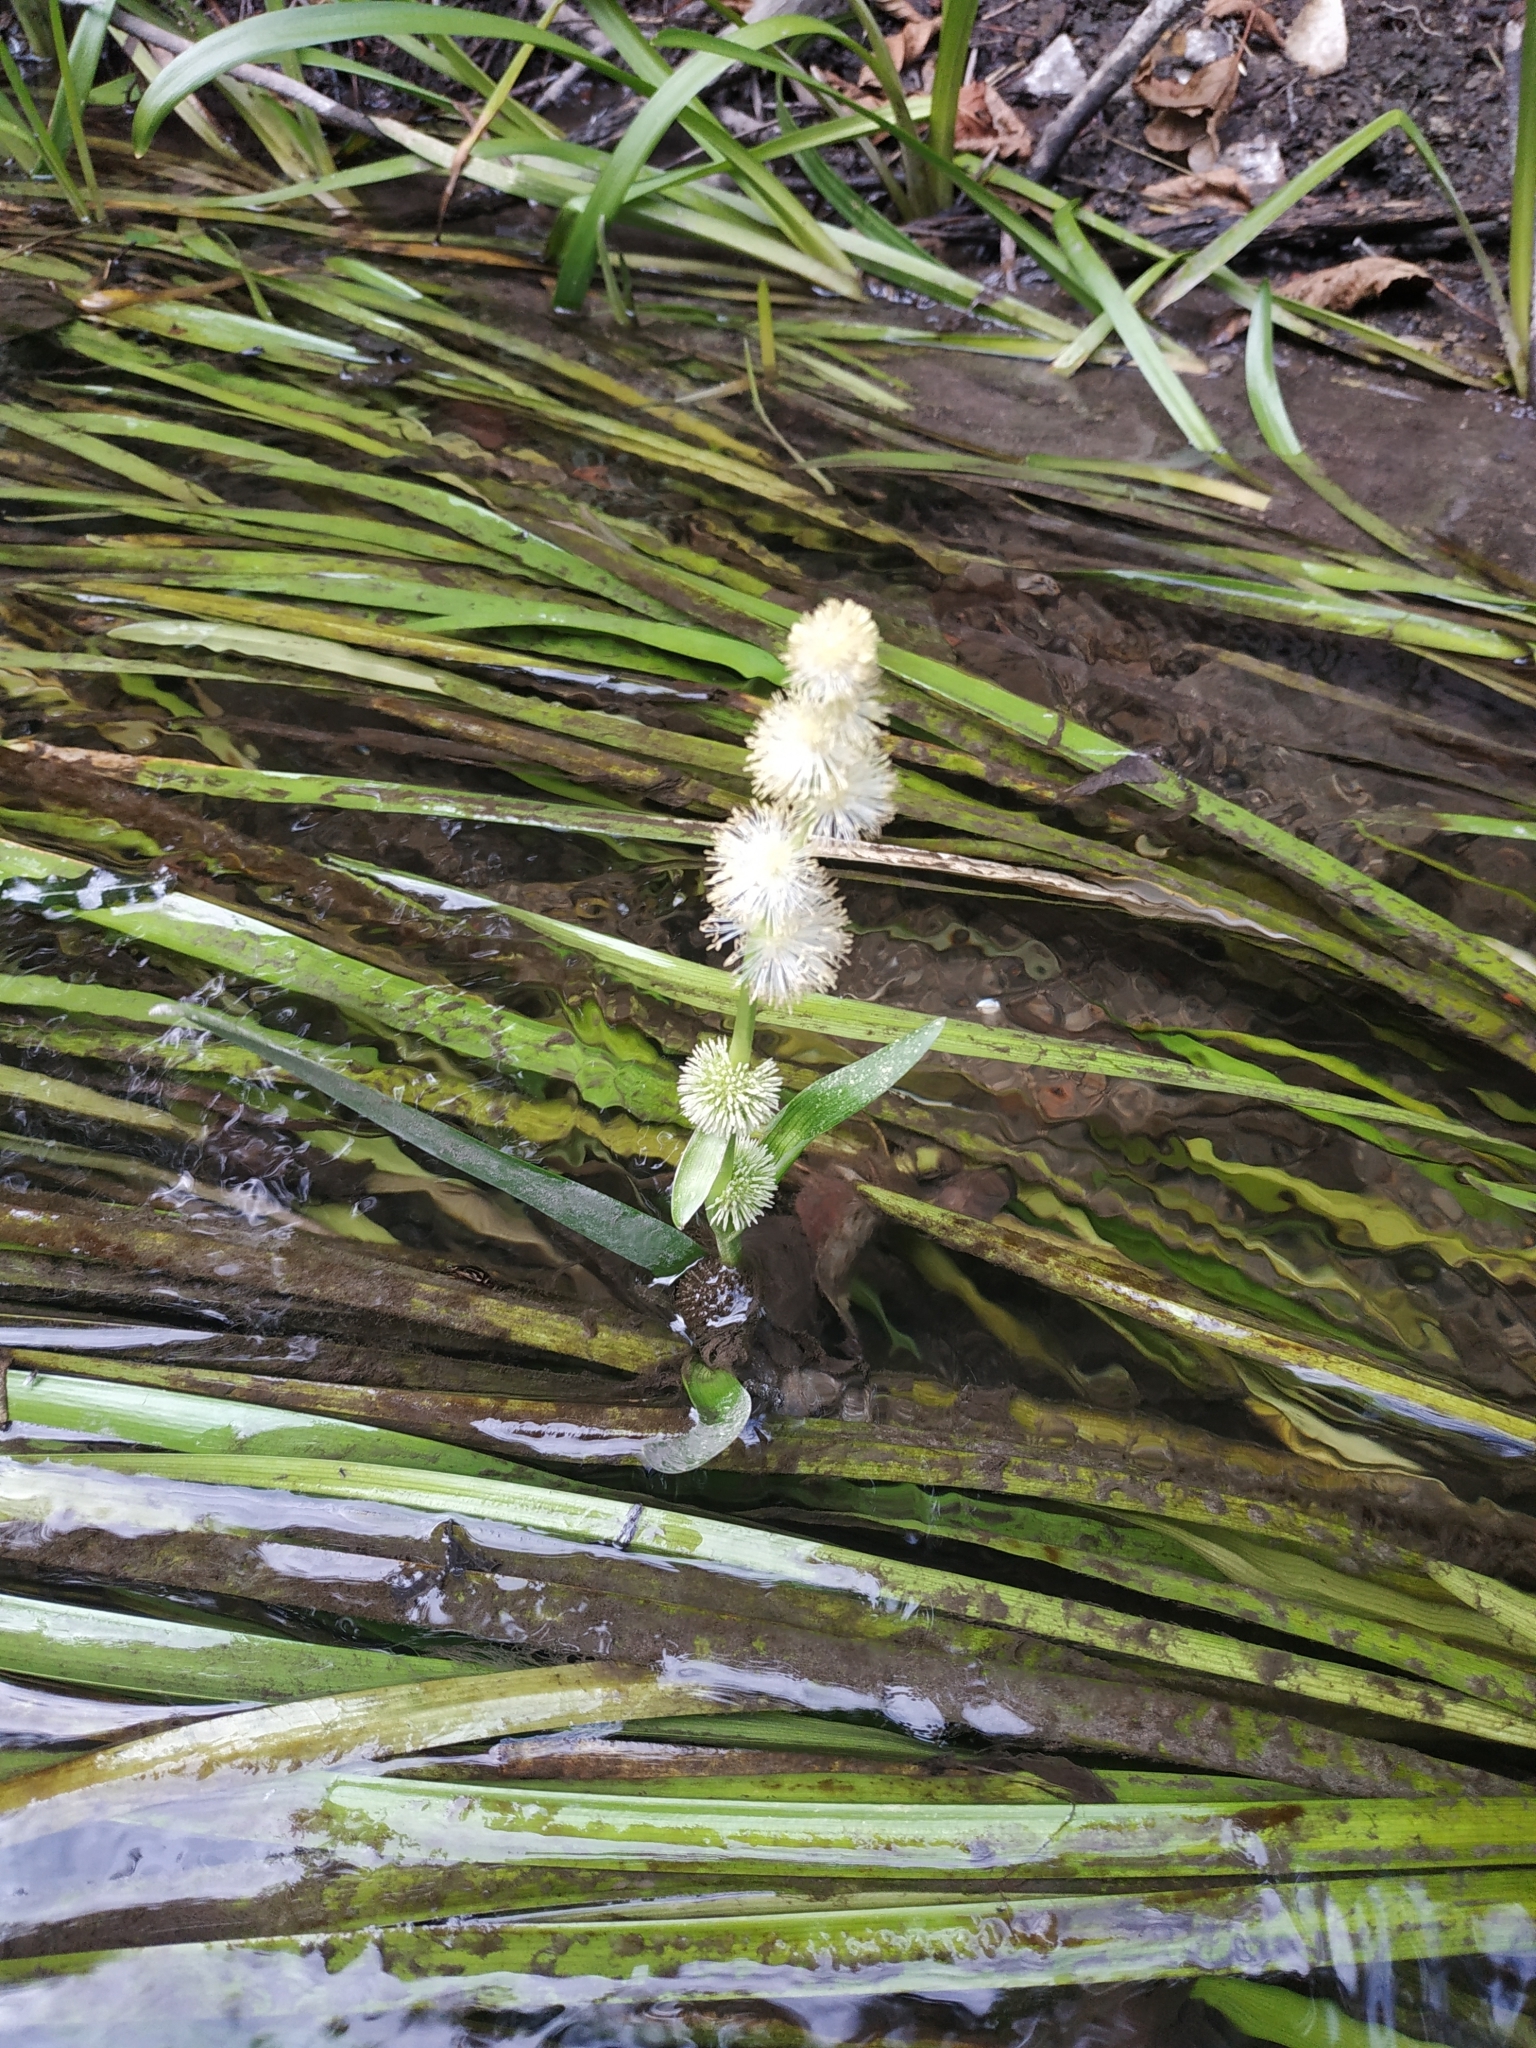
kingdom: Plantae
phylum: Tracheophyta
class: Liliopsida
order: Poales
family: Typhaceae
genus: Sparganium
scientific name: Sparganium emersum
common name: Unbranched bur-reed
